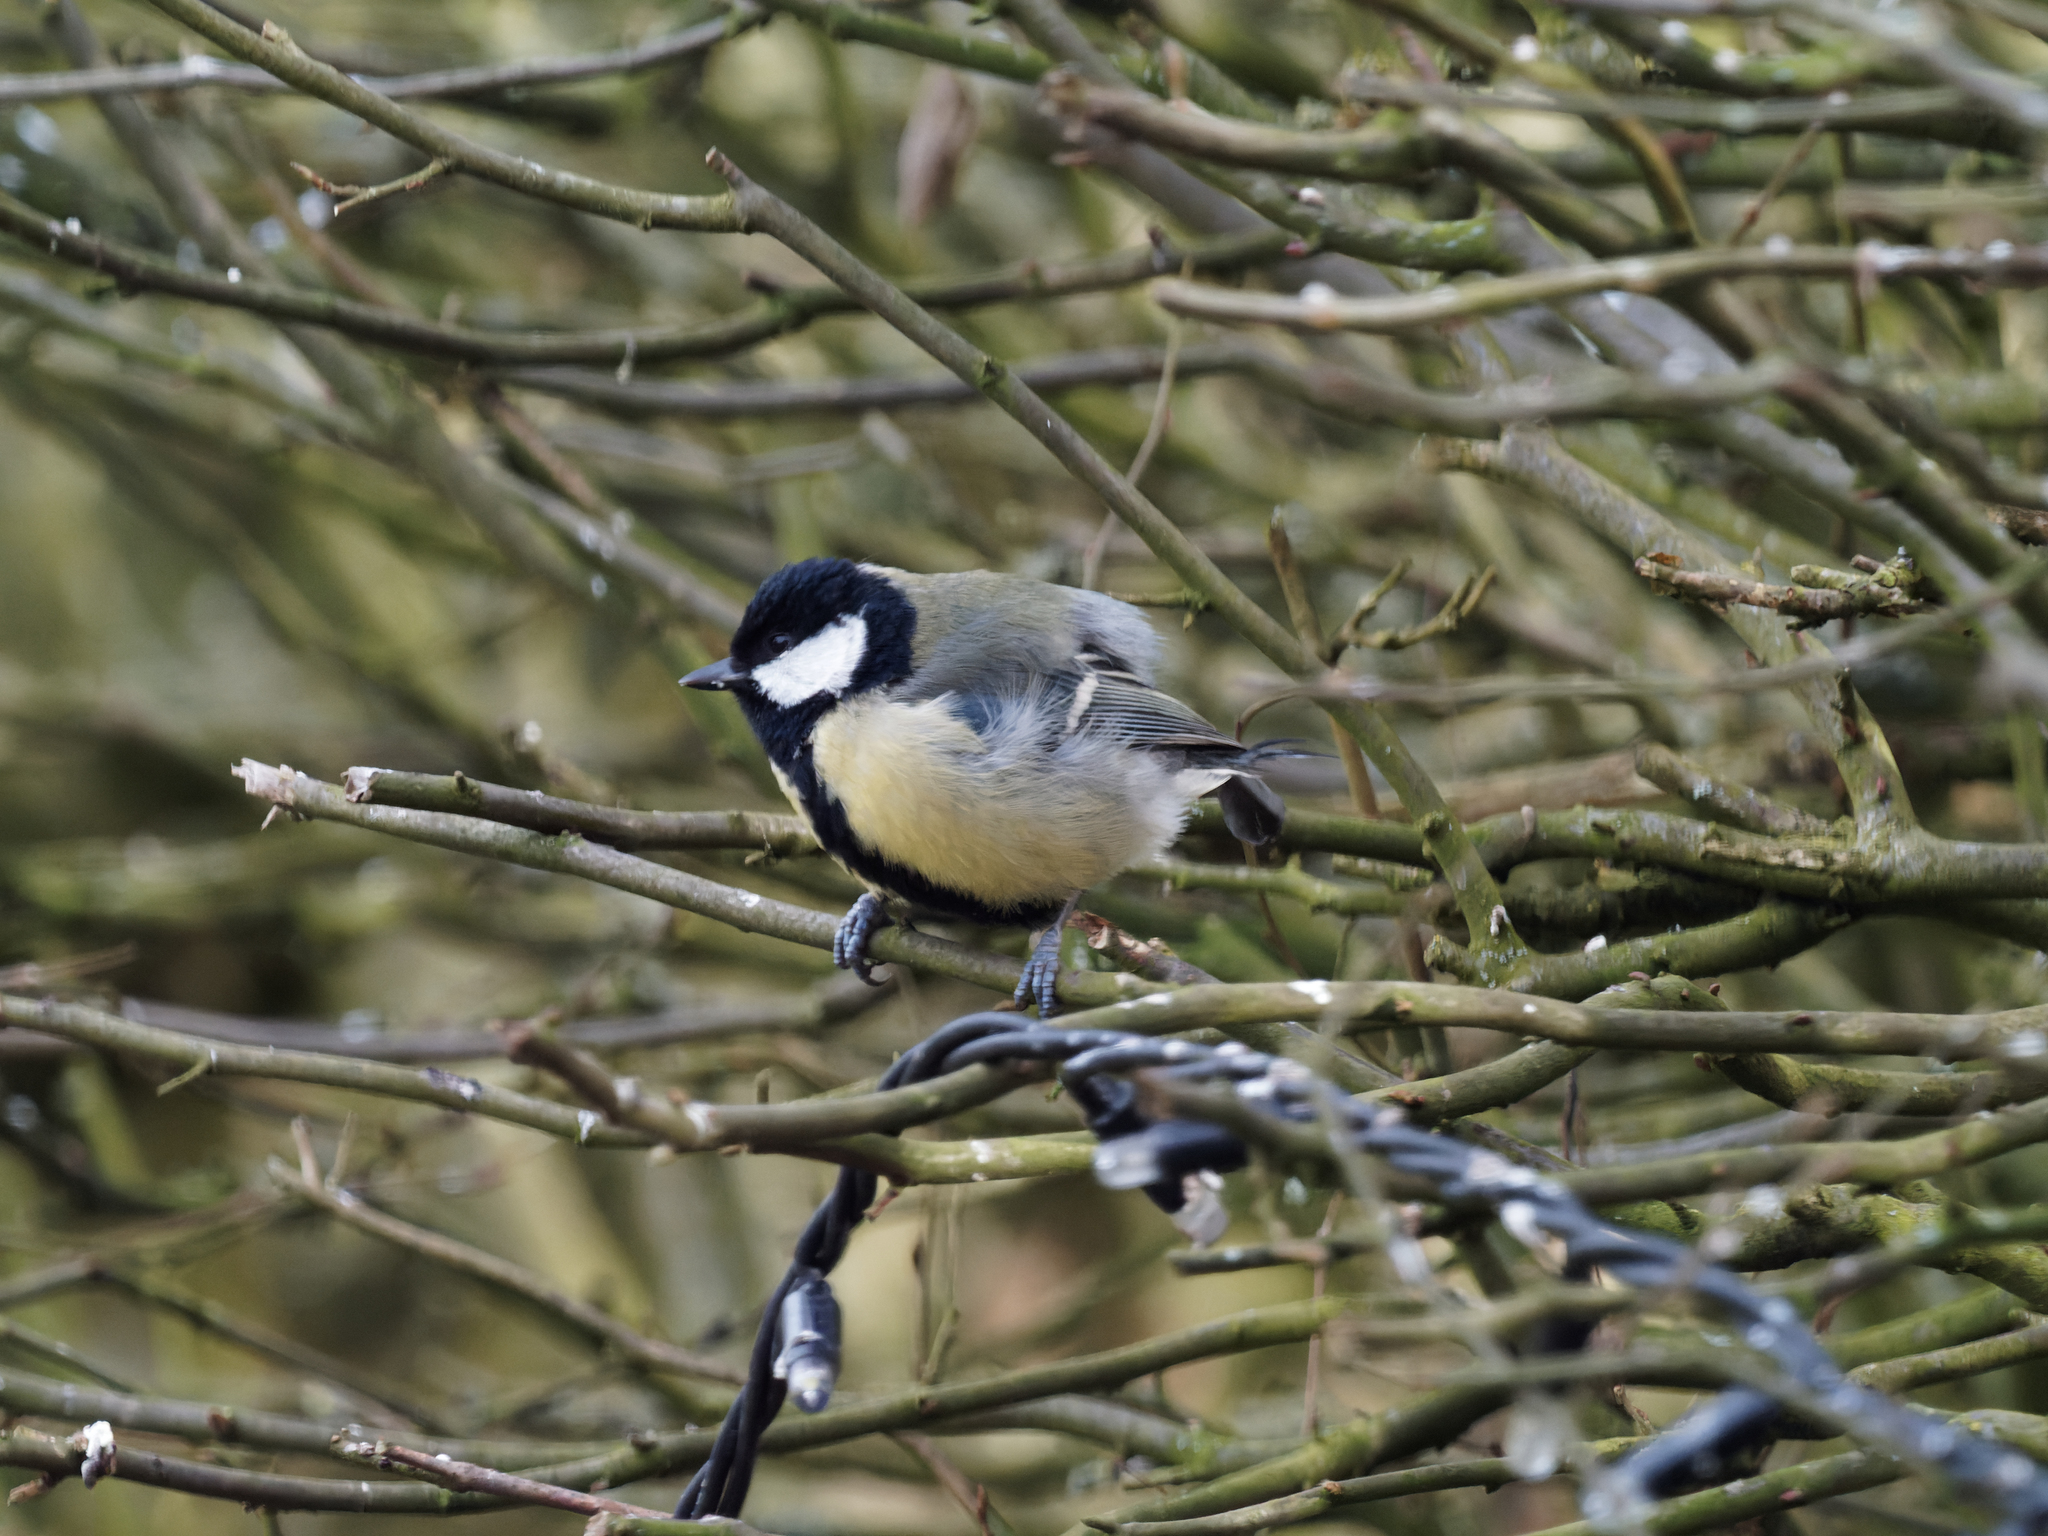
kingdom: Animalia
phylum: Chordata
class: Aves
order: Passeriformes
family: Paridae
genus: Parus
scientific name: Parus major
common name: Great tit
